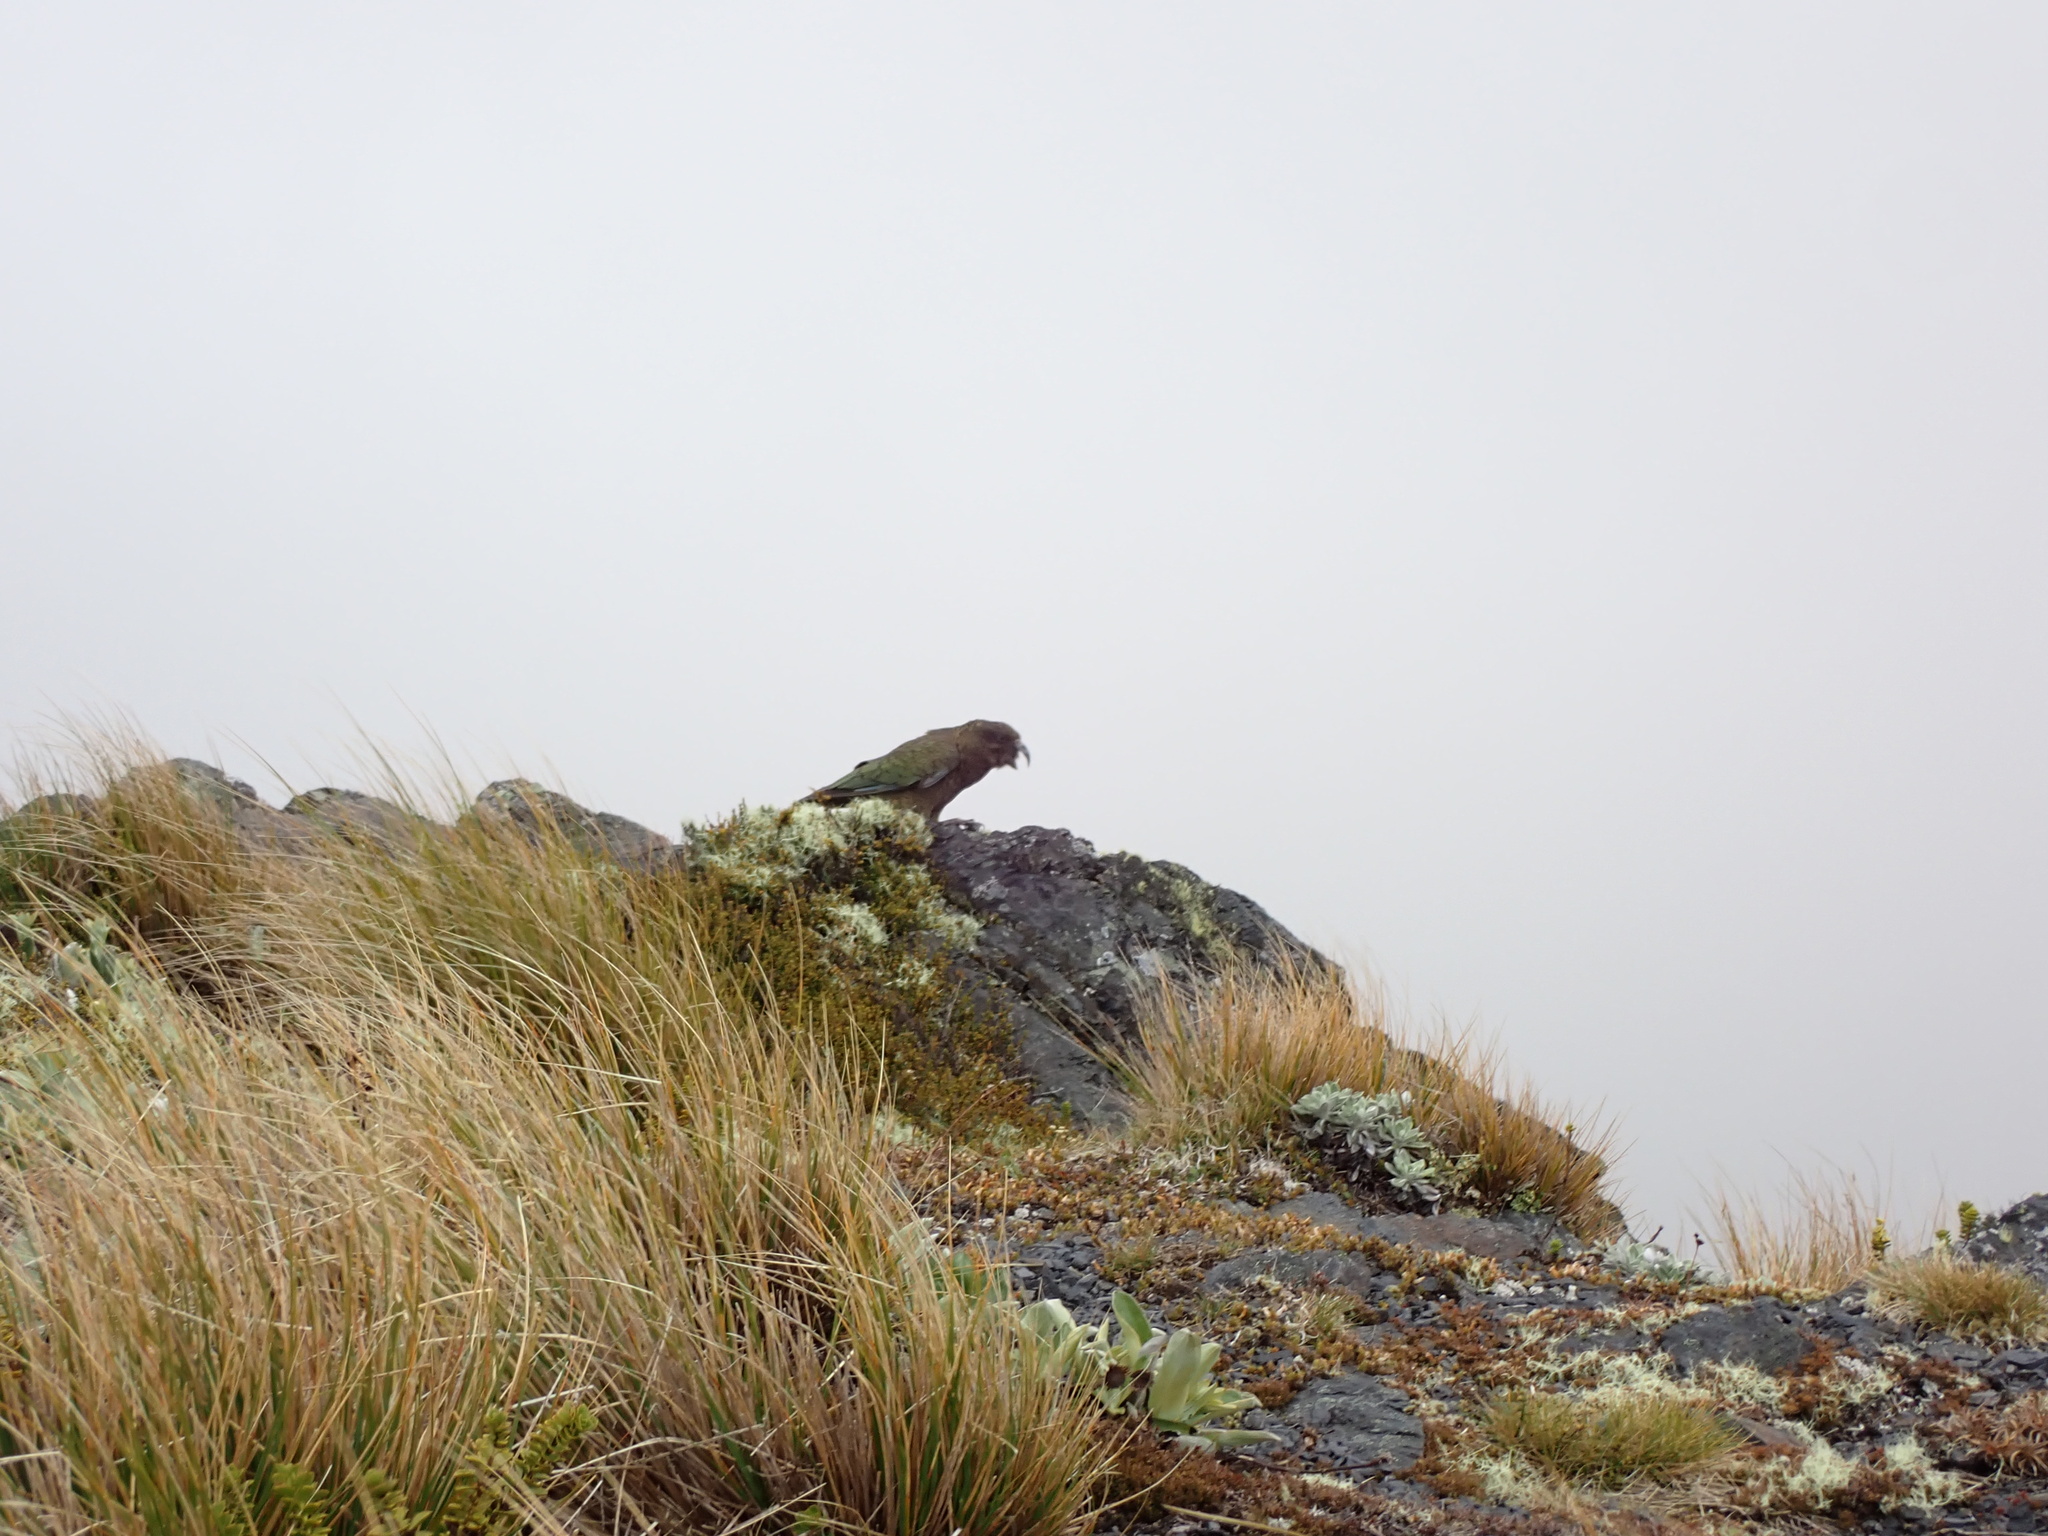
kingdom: Animalia
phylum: Chordata
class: Aves
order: Psittaciformes
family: Psittacidae
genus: Nestor
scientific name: Nestor notabilis
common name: Kea
